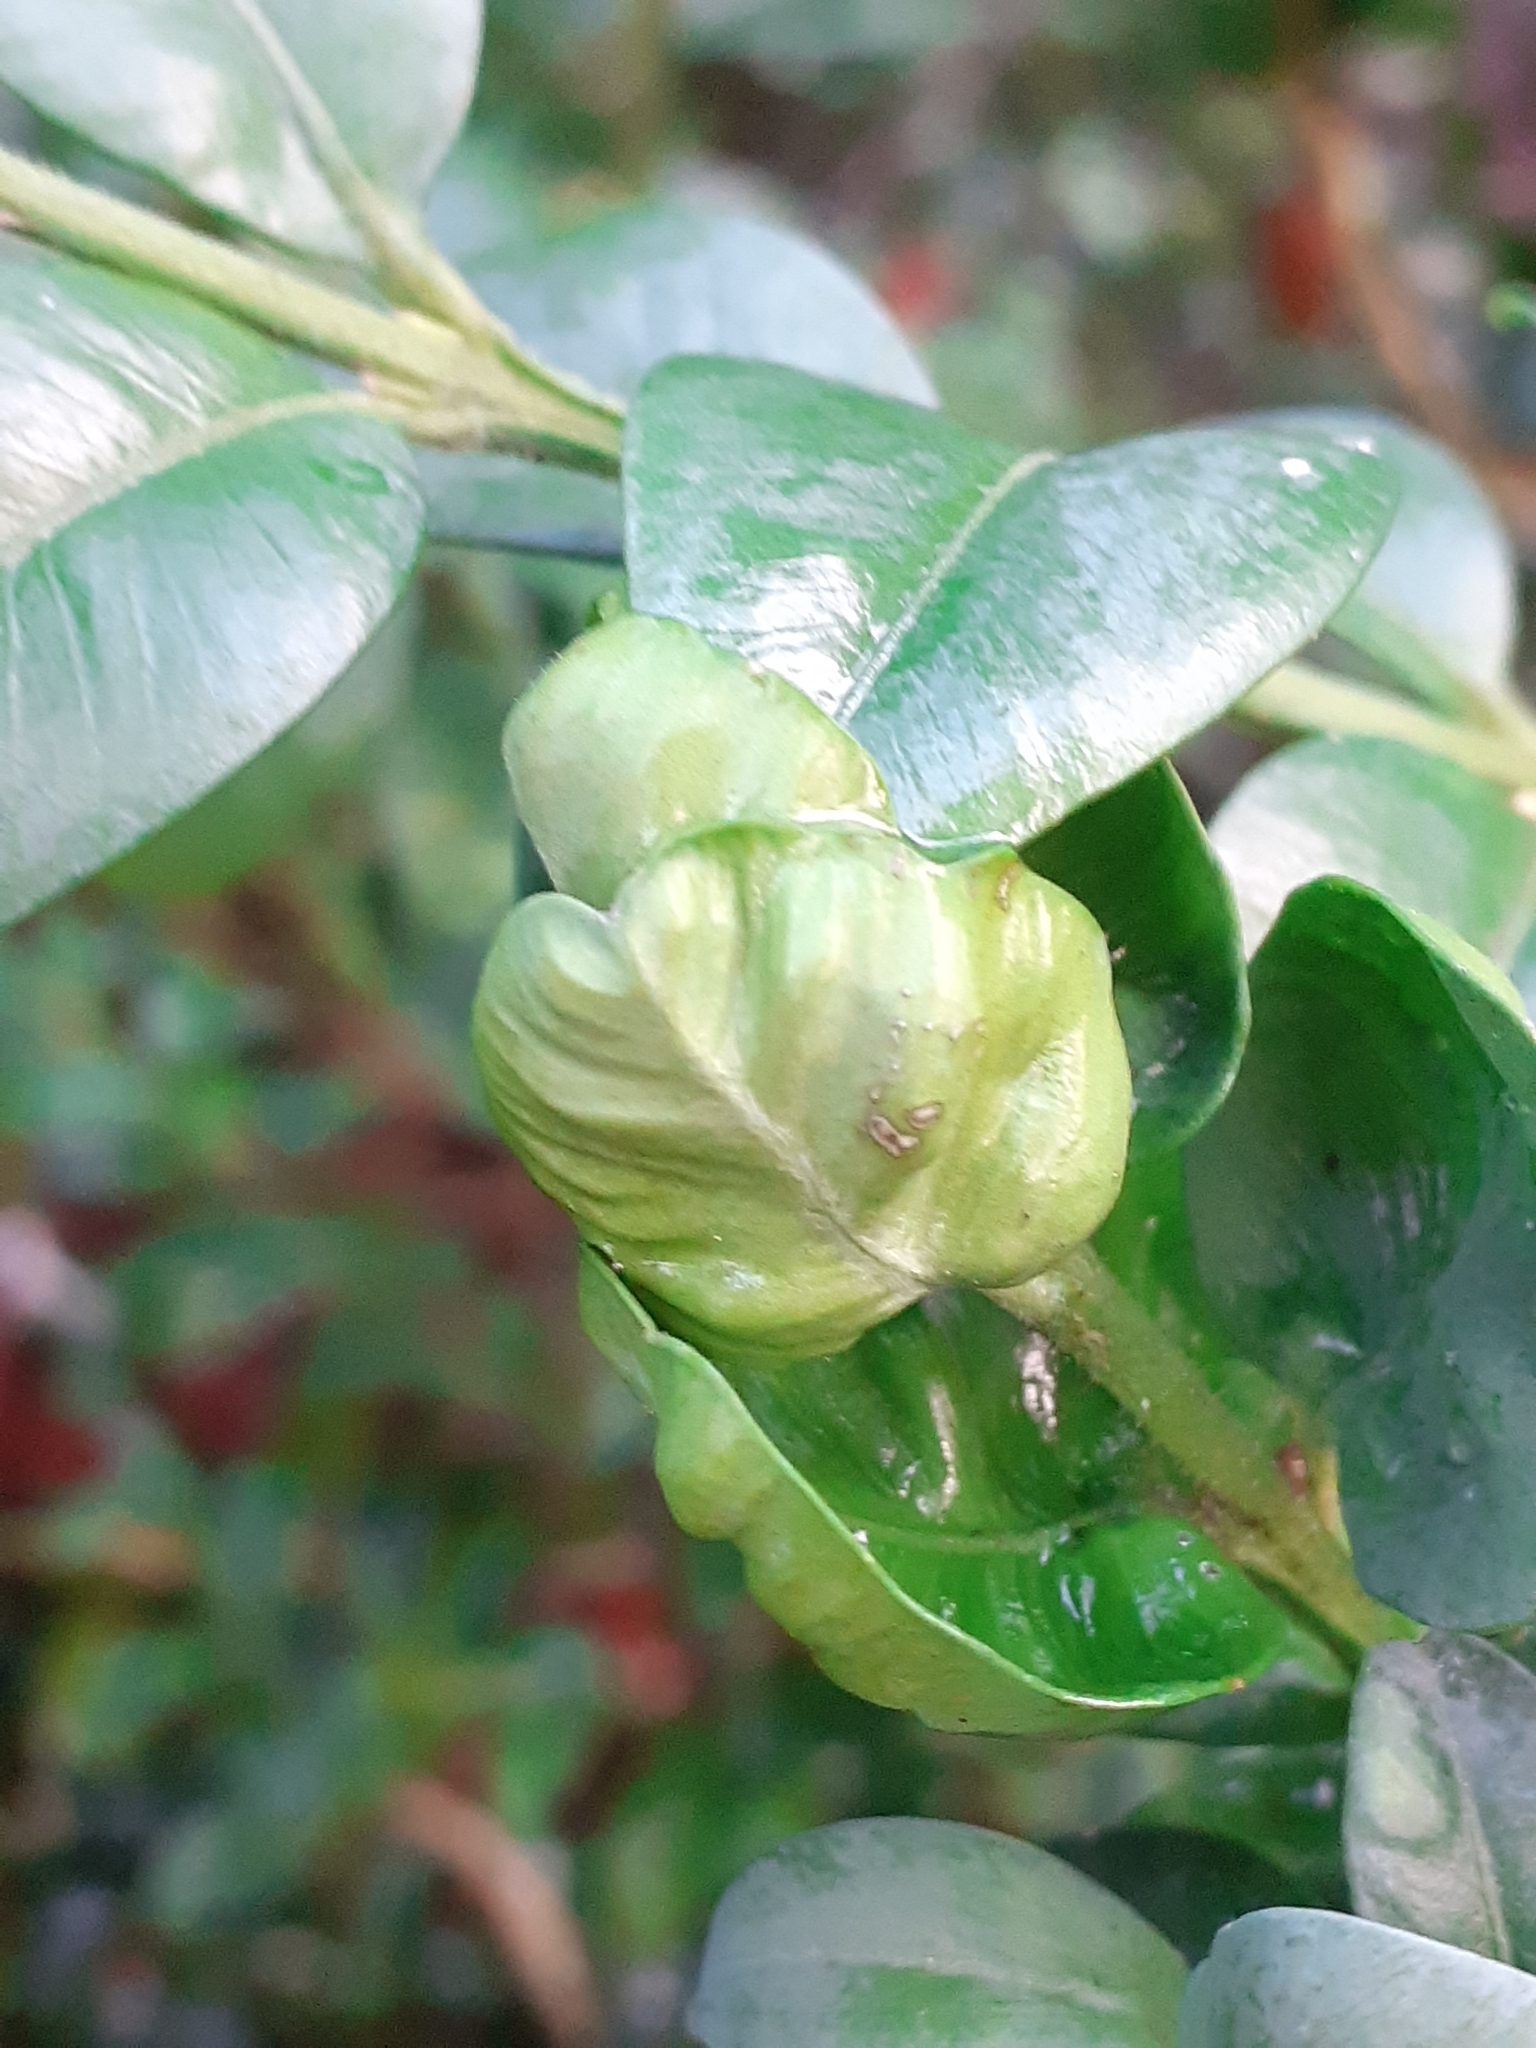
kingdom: Animalia
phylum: Arthropoda
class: Insecta
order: Hemiptera
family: Psyllidae
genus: Psylla
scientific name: Psylla buxi
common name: Boxwood psyllid
